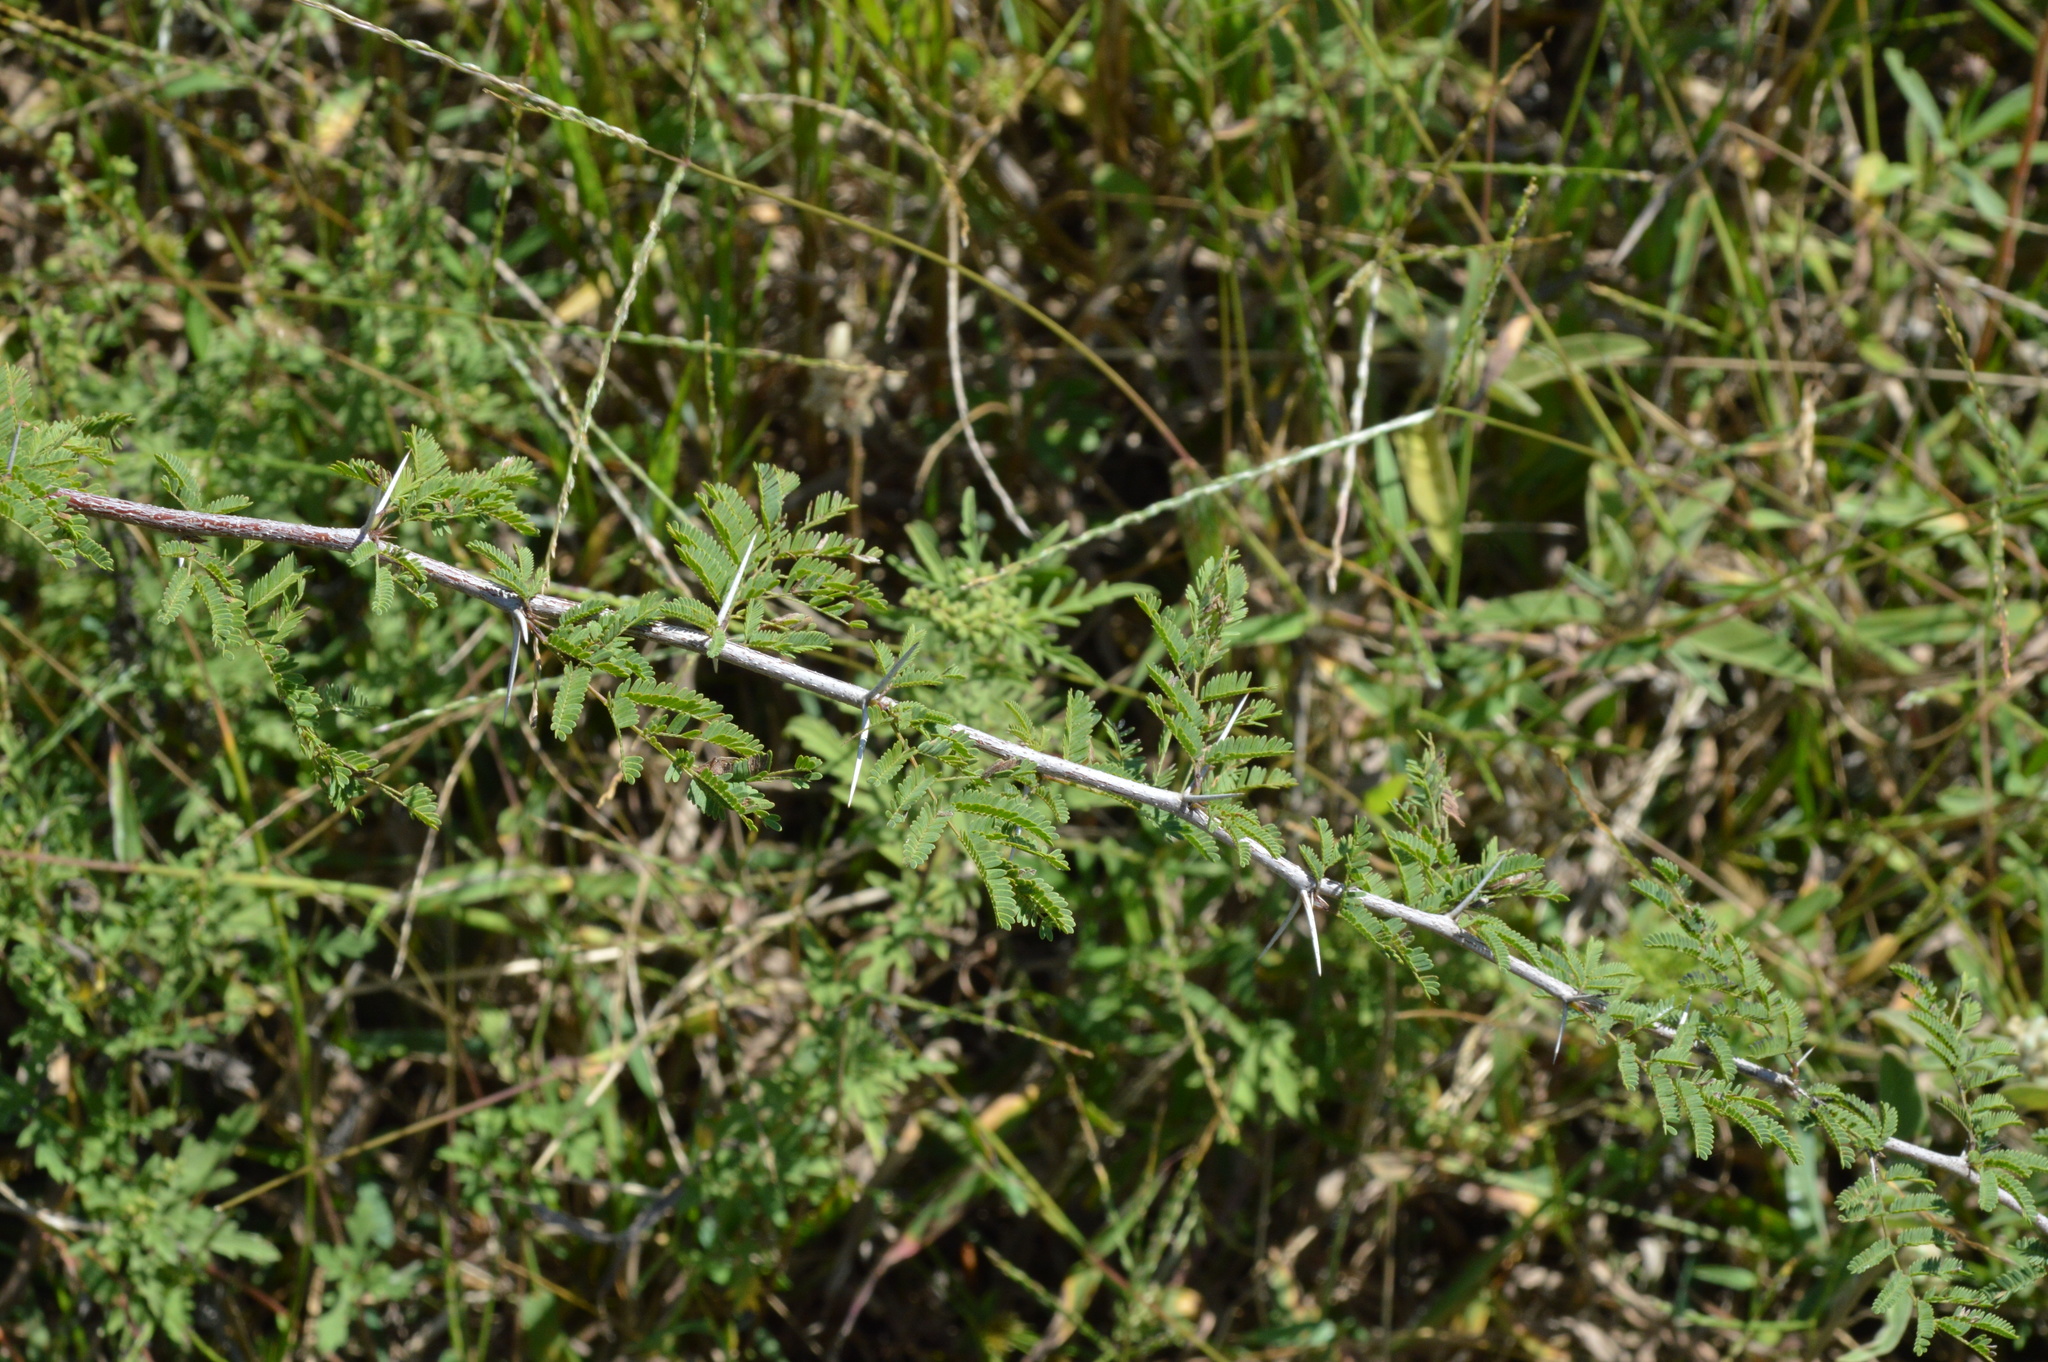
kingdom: Plantae
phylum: Tracheophyta
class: Magnoliopsida
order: Fabales
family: Fabaceae
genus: Vachellia
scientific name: Vachellia farnesiana
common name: Sweet acacia
